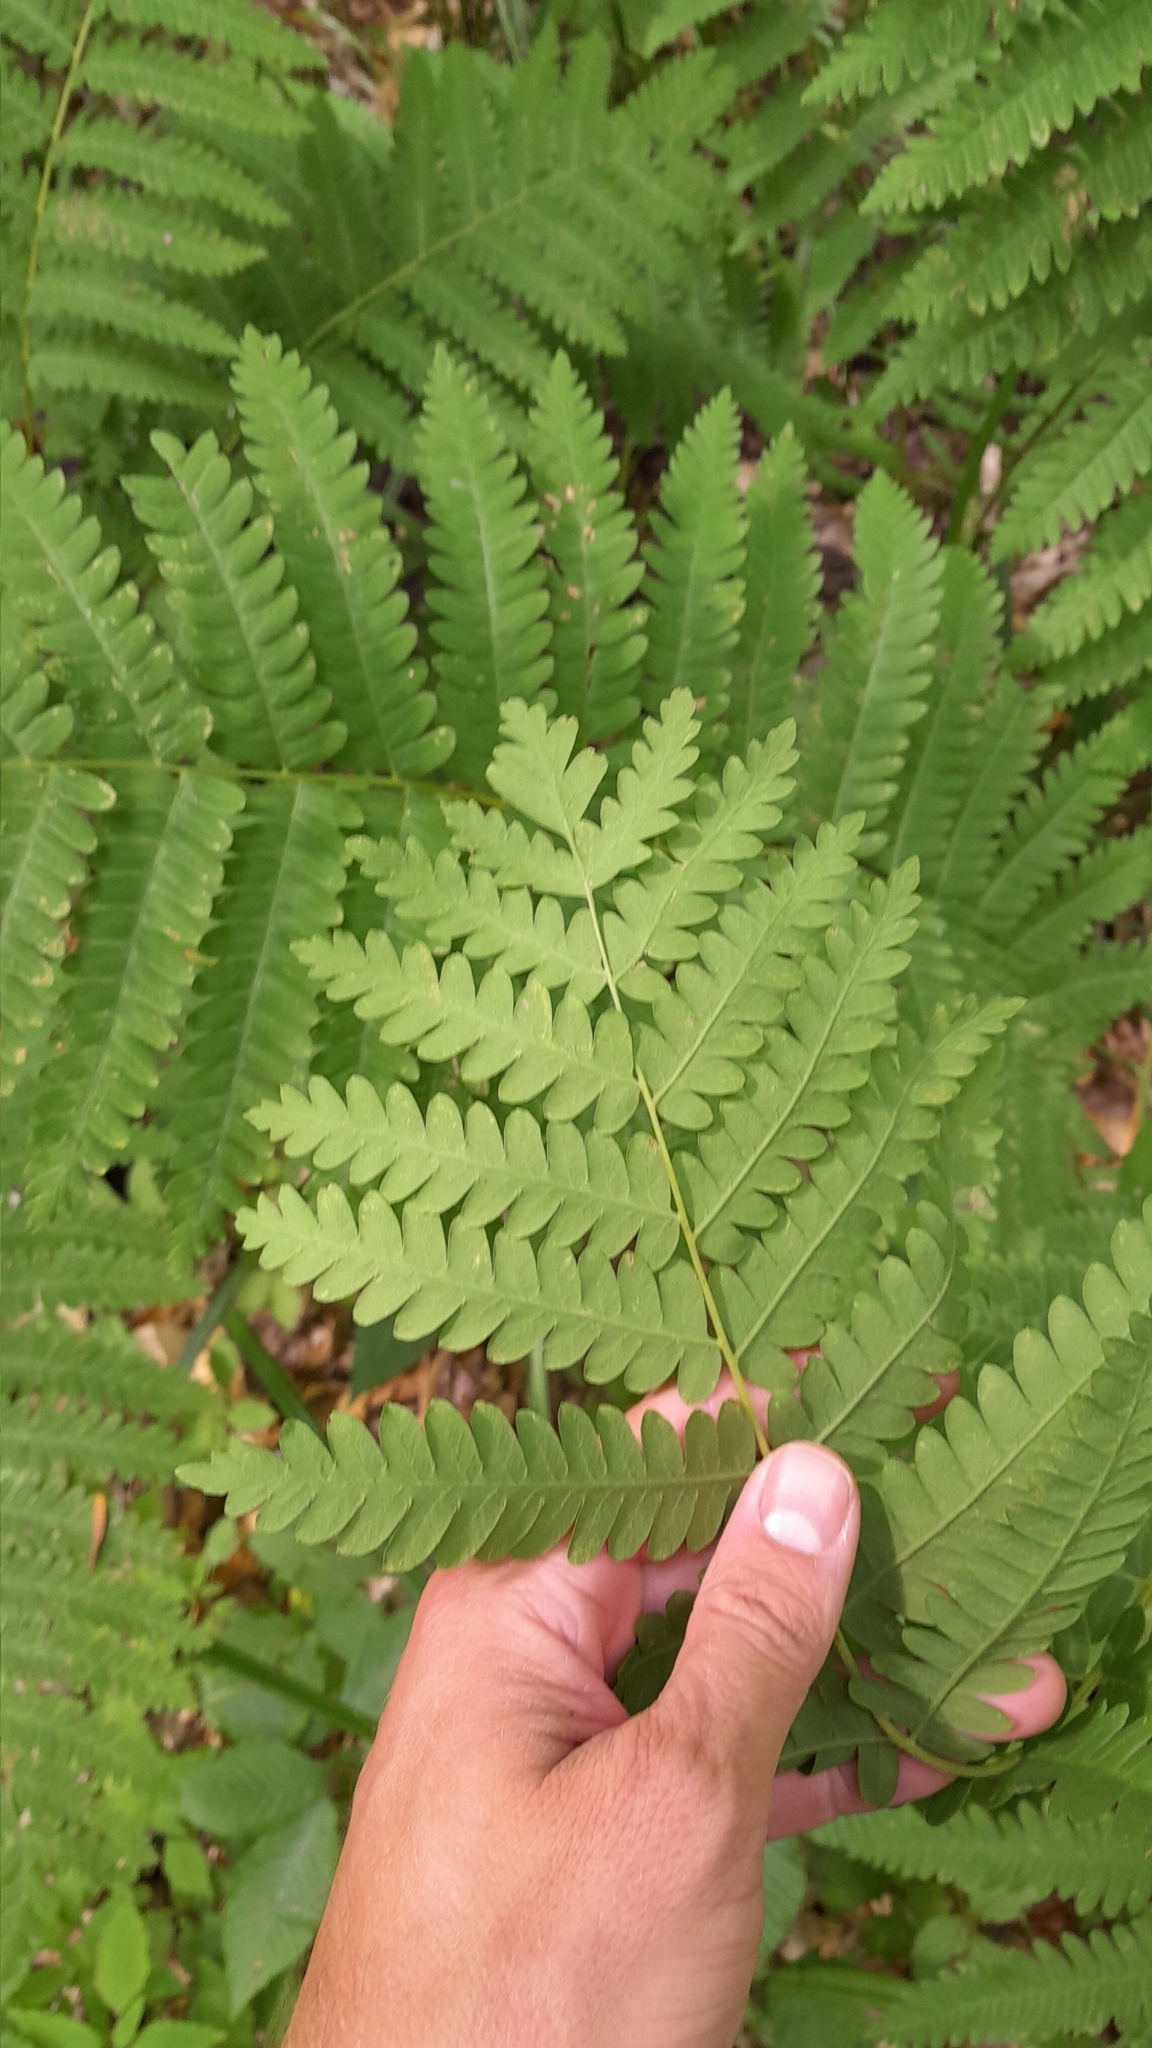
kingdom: Plantae
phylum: Tracheophyta
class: Polypodiopsida
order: Osmundales
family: Osmundaceae
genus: Claytosmunda
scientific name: Claytosmunda claytoniana
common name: Clayton's fern
